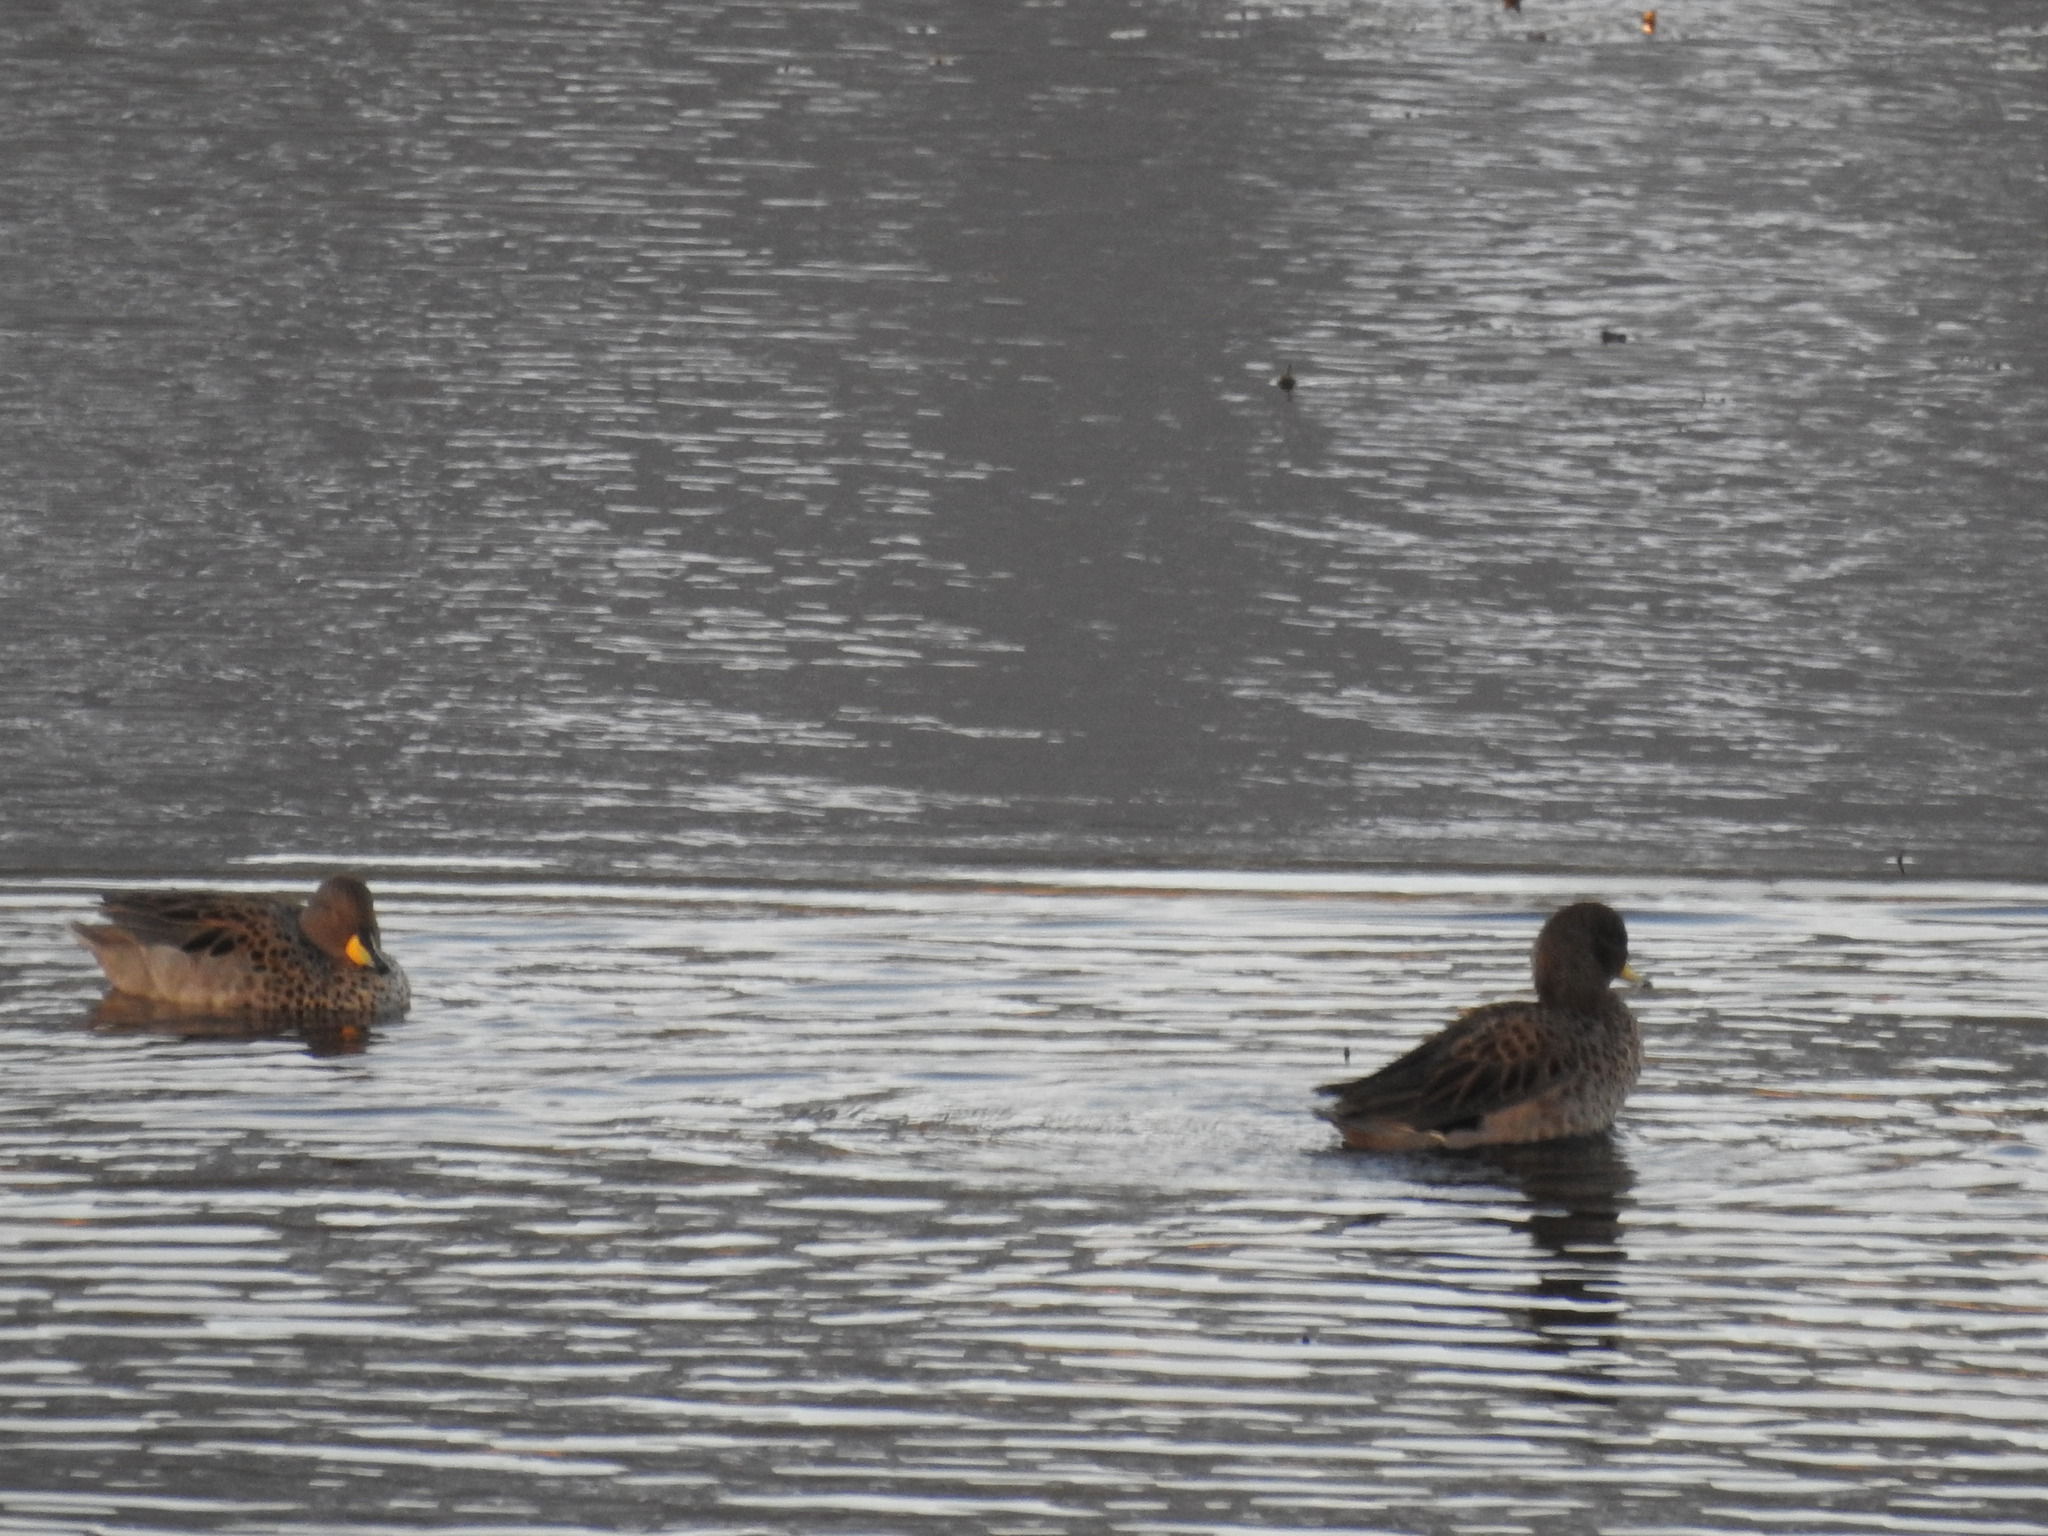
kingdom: Animalia
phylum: Chordata
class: Aves
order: Anseriformes
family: Anatidae
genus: Anas
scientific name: Anas flavirostris
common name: Yellow-billed teal
